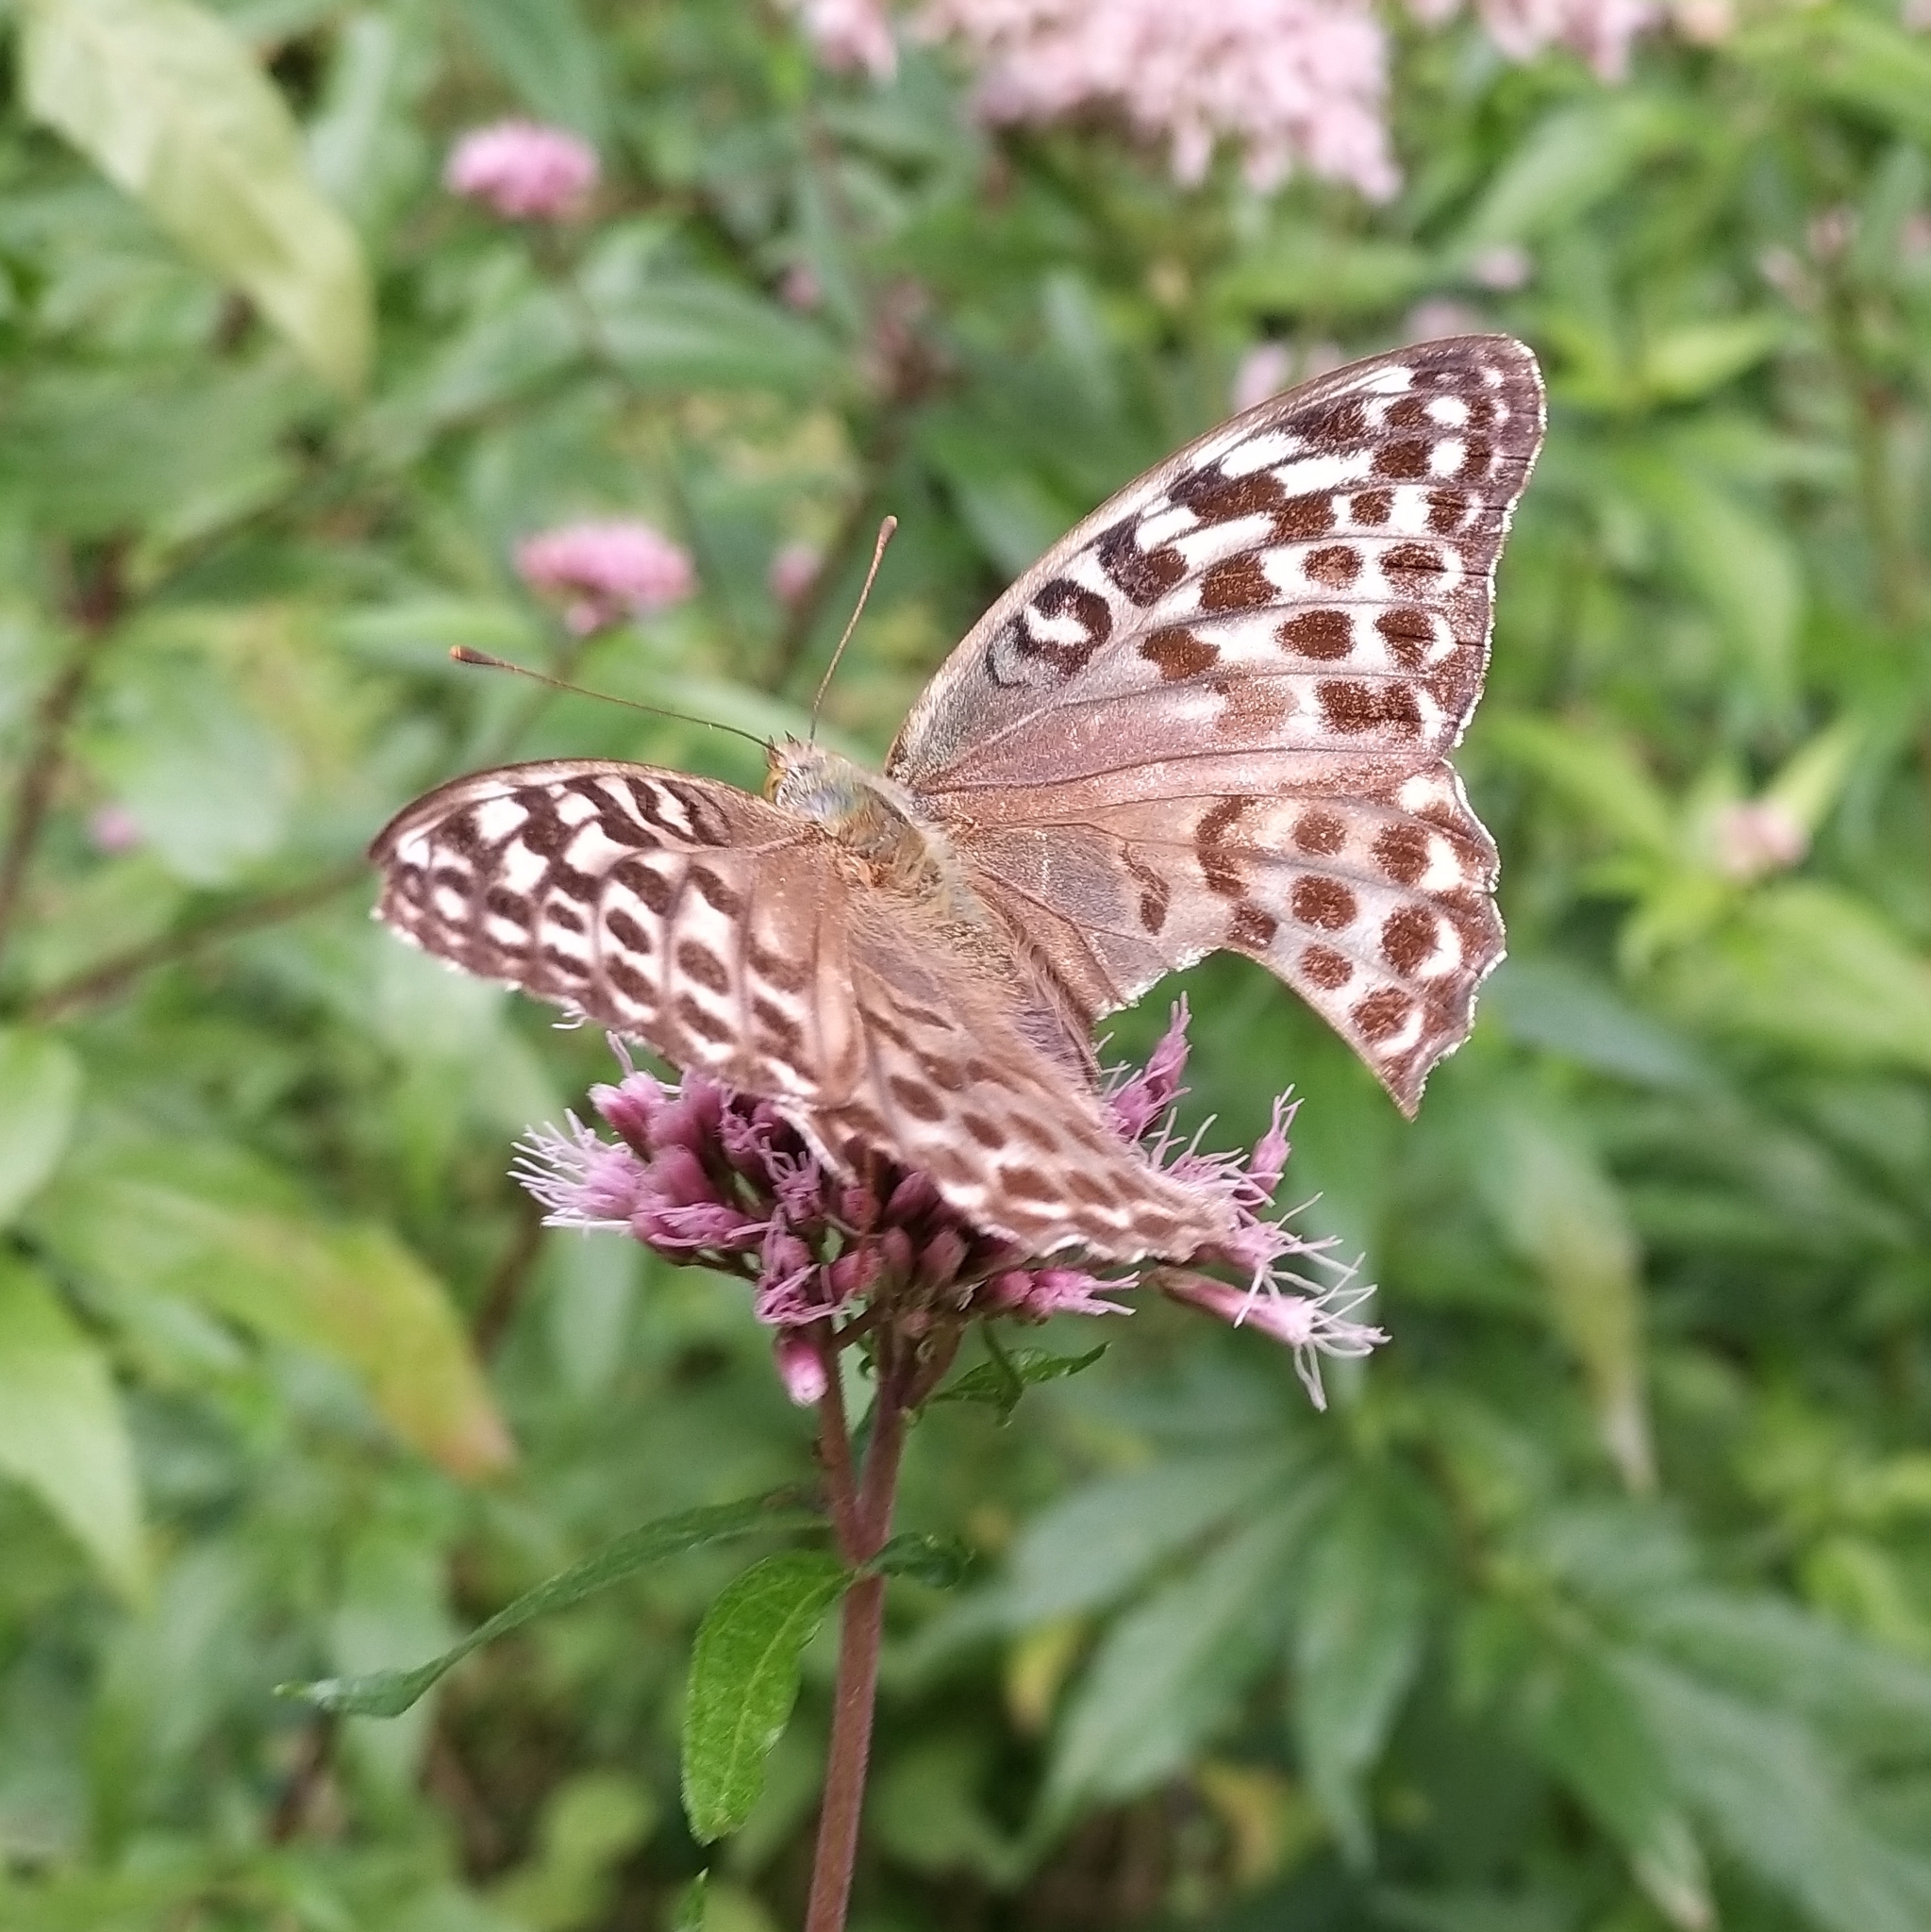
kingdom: Animalia
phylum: Arthropoda
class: Insecta
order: Lepidoptera
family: Nymphalidae
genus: Argynnis
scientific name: Argynnis paphia
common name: Silver-washed fritillary
